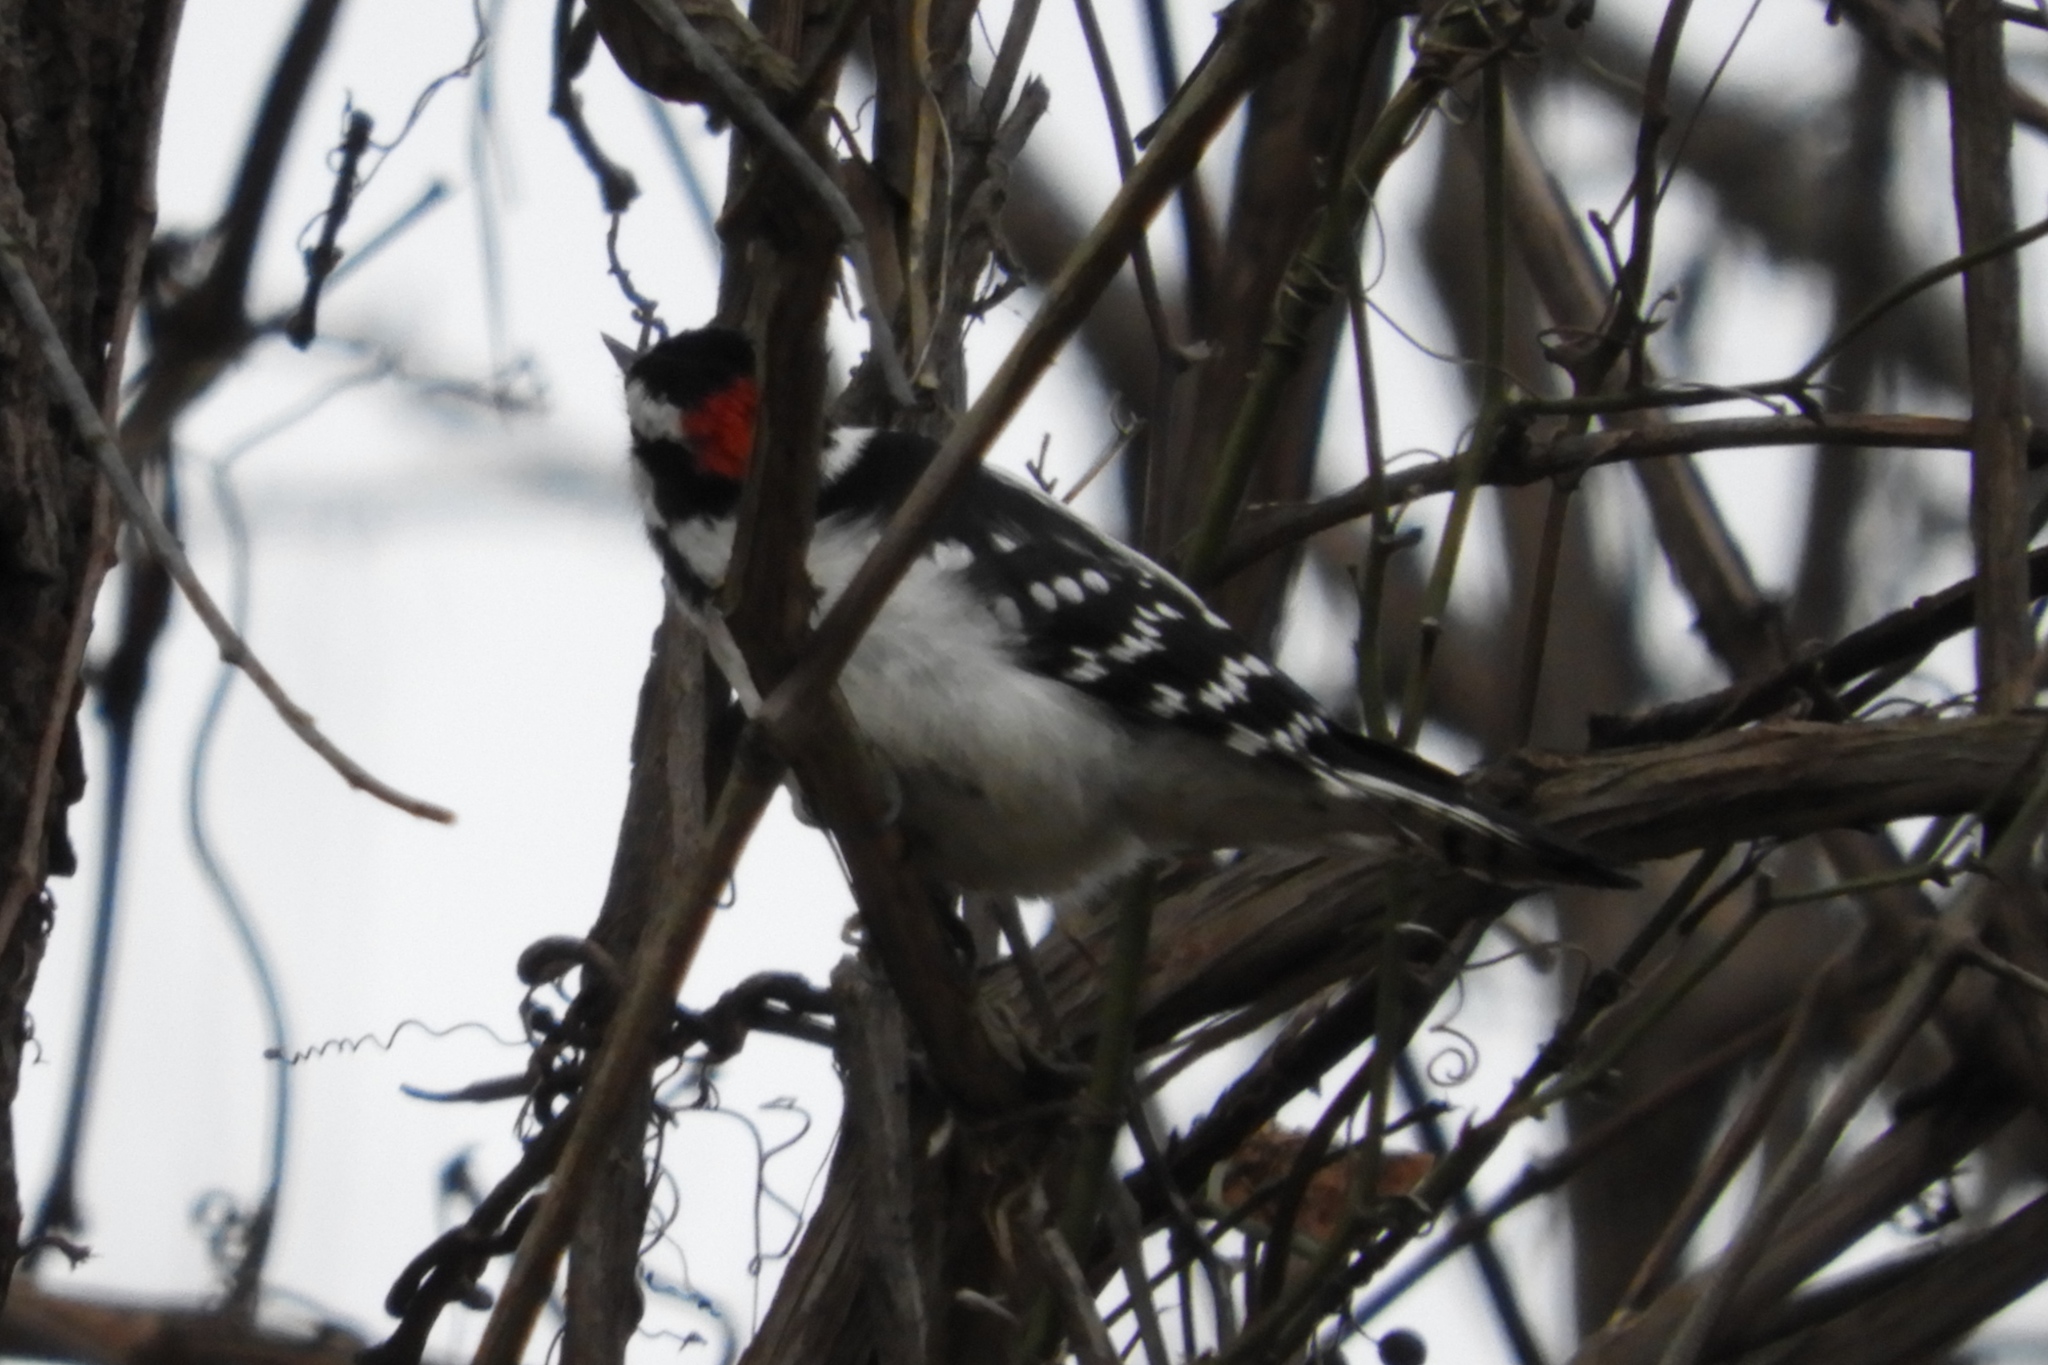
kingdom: Animalia
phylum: Chordata
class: Aves
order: Piciformes
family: Picidae
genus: Dryobates
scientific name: Dryobates pubescens
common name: Downy woodpecker
